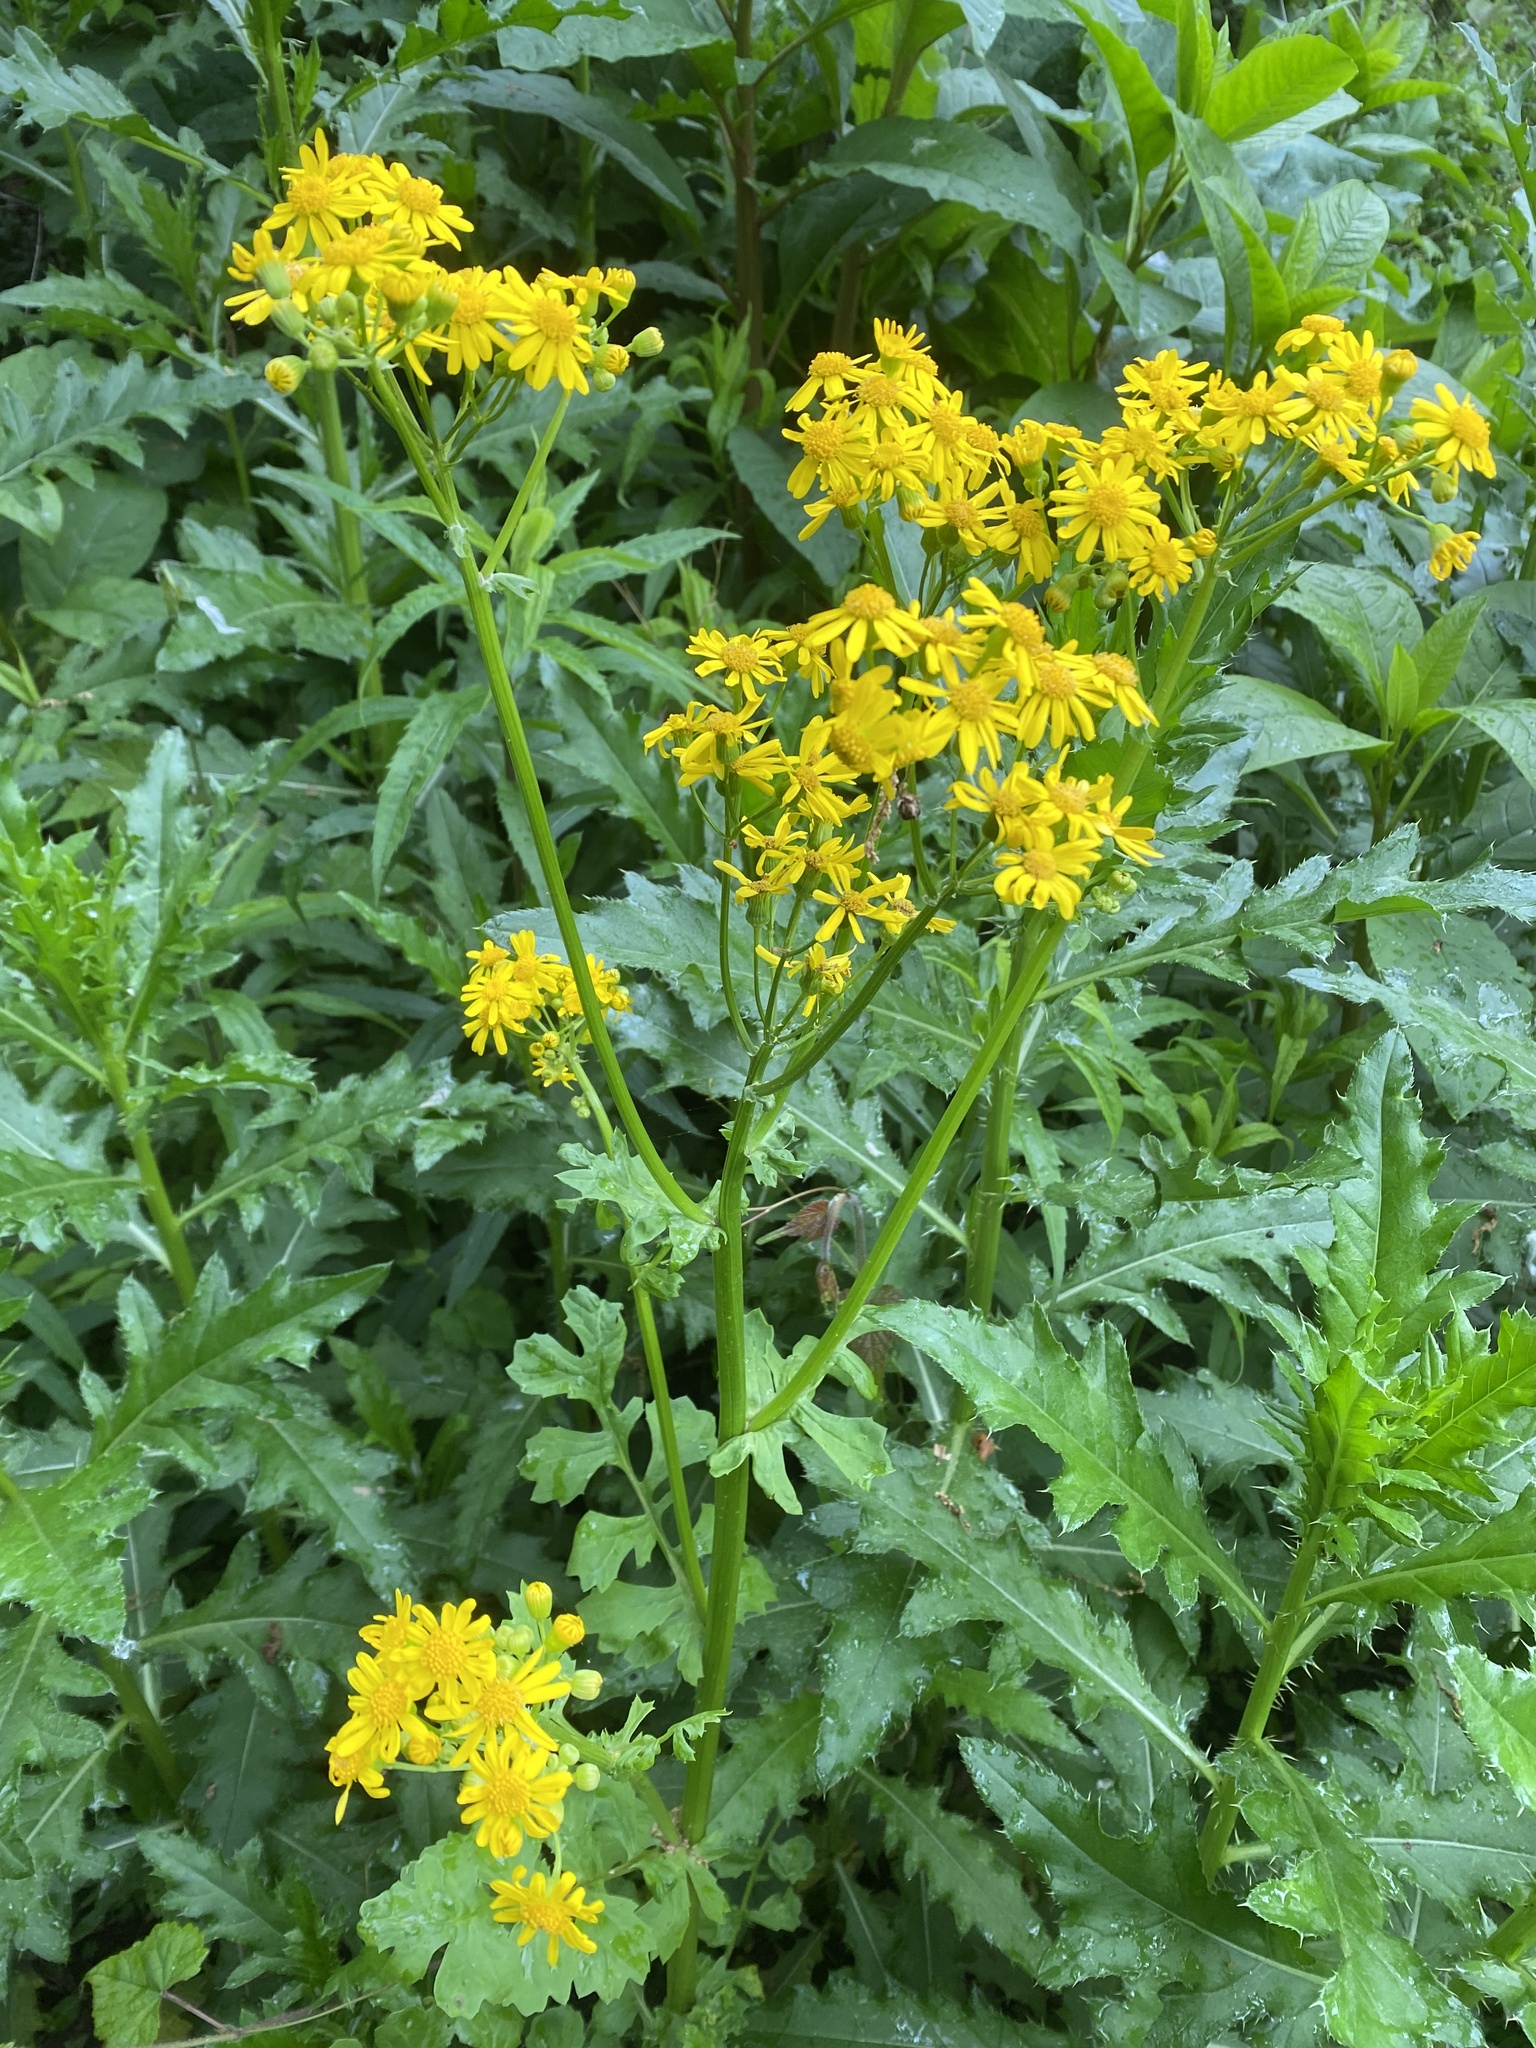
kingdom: Plantae
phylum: Tracheophyta
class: Magnoliopsida
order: Asterales
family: Asteraceae
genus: Packera
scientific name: Packera glabella
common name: Butterweed
